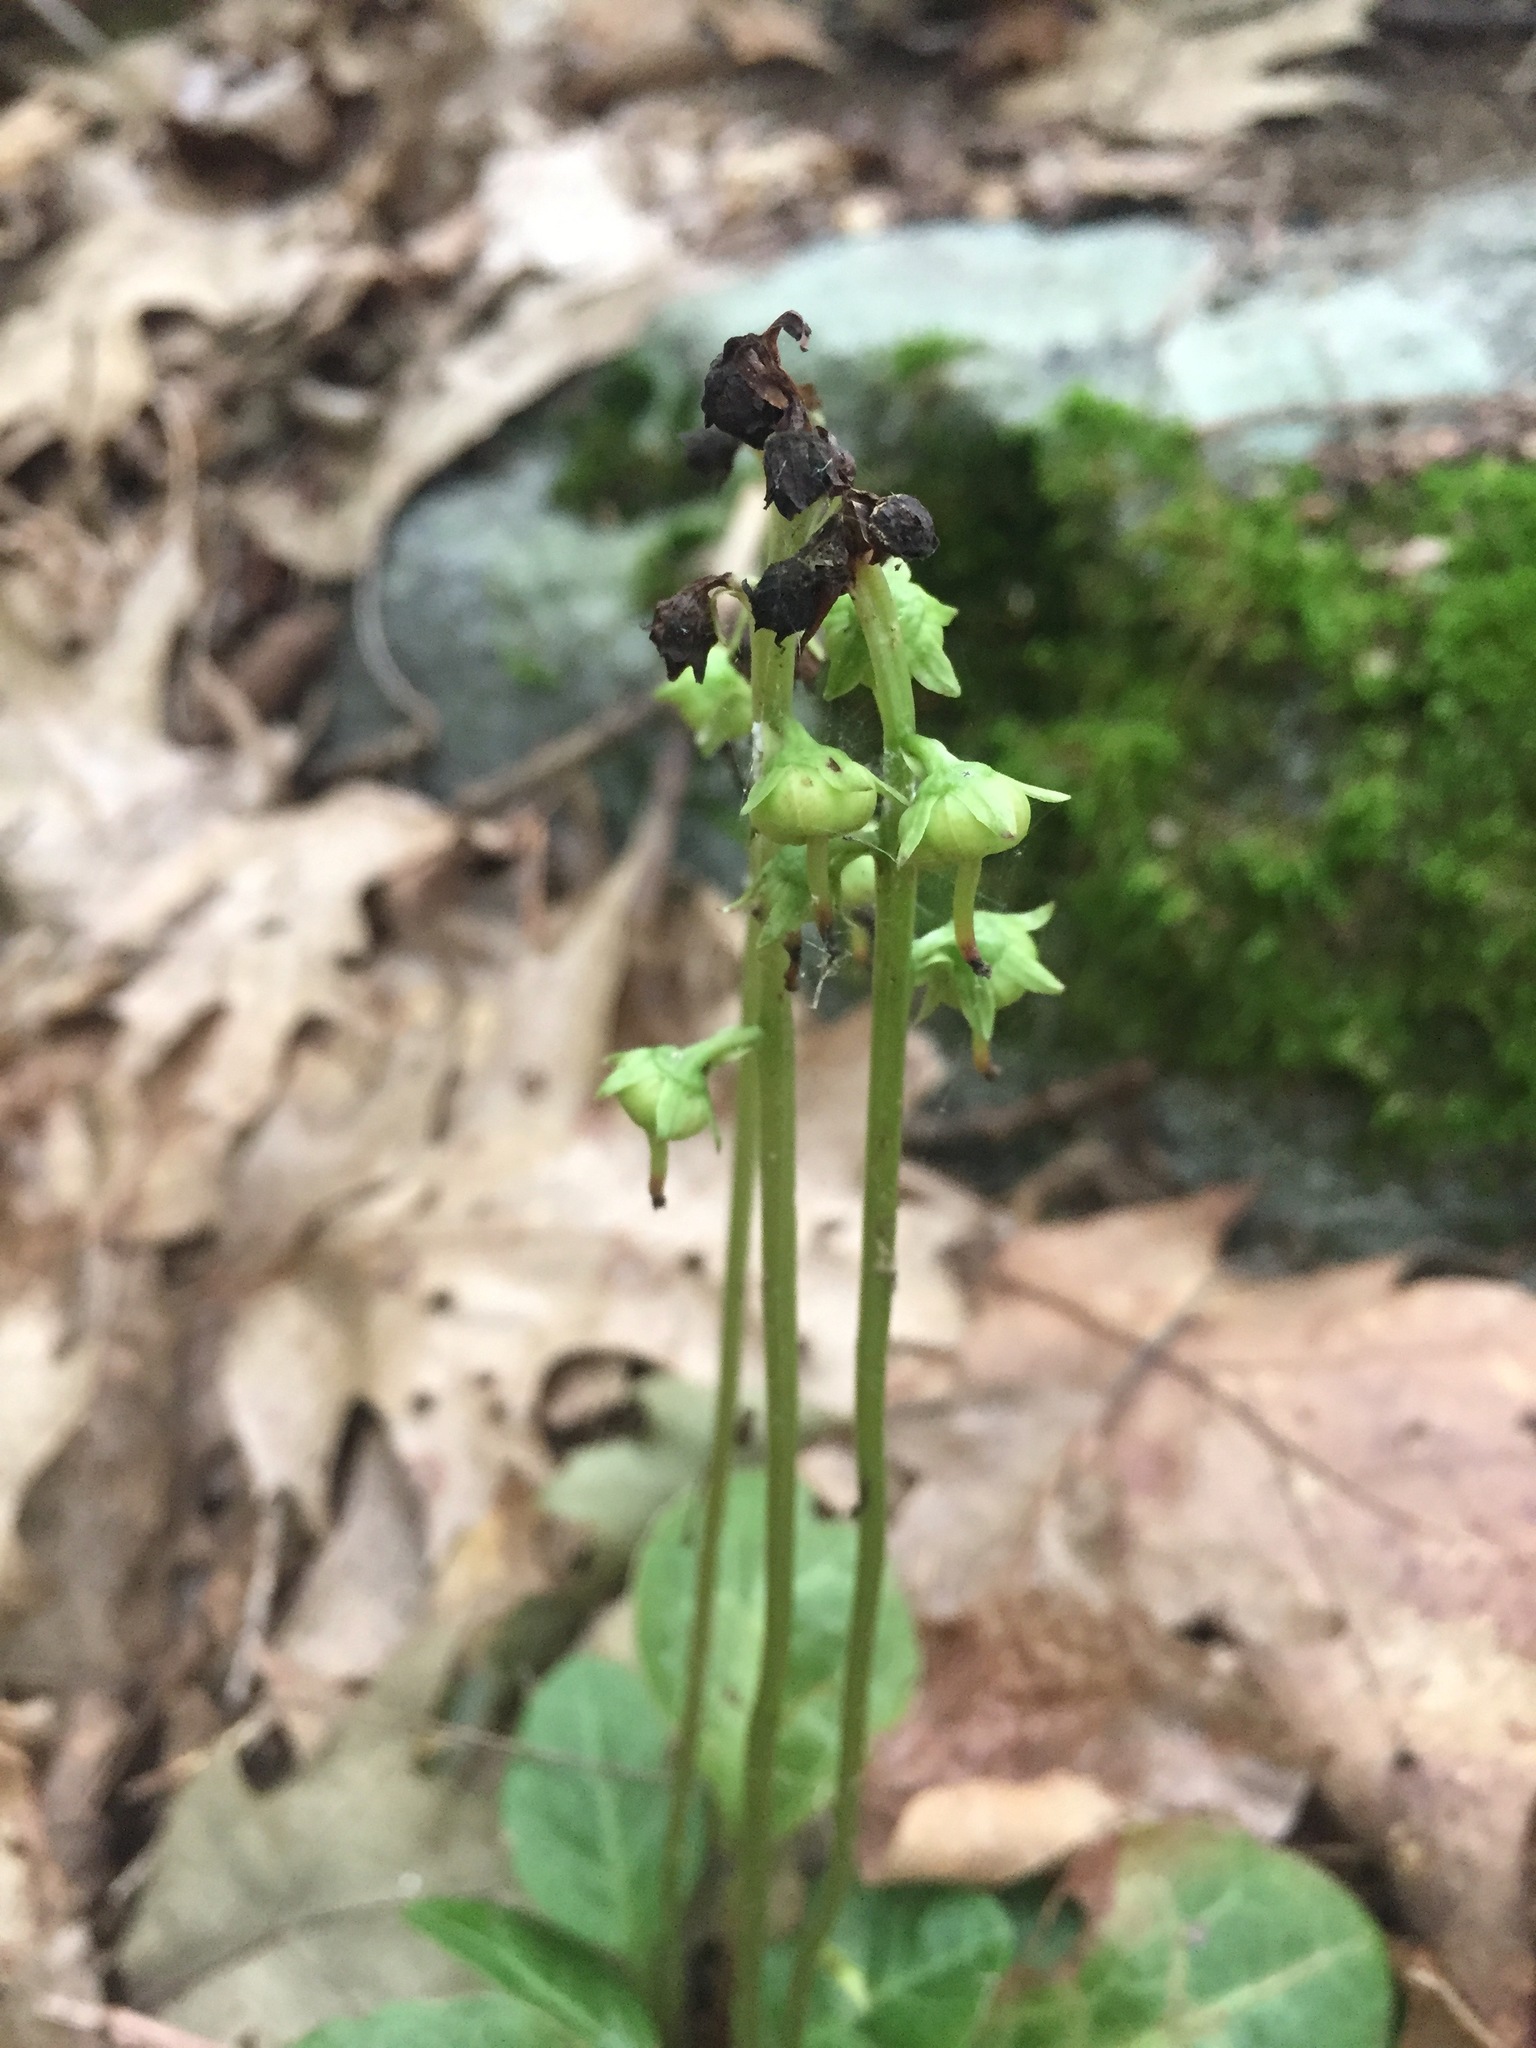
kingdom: Plantae
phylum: Tracheophyta
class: Magnoliopsida
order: Ericales
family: Ericaceae
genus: Pyrola
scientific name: Pyrola americana
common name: American wintergreen
